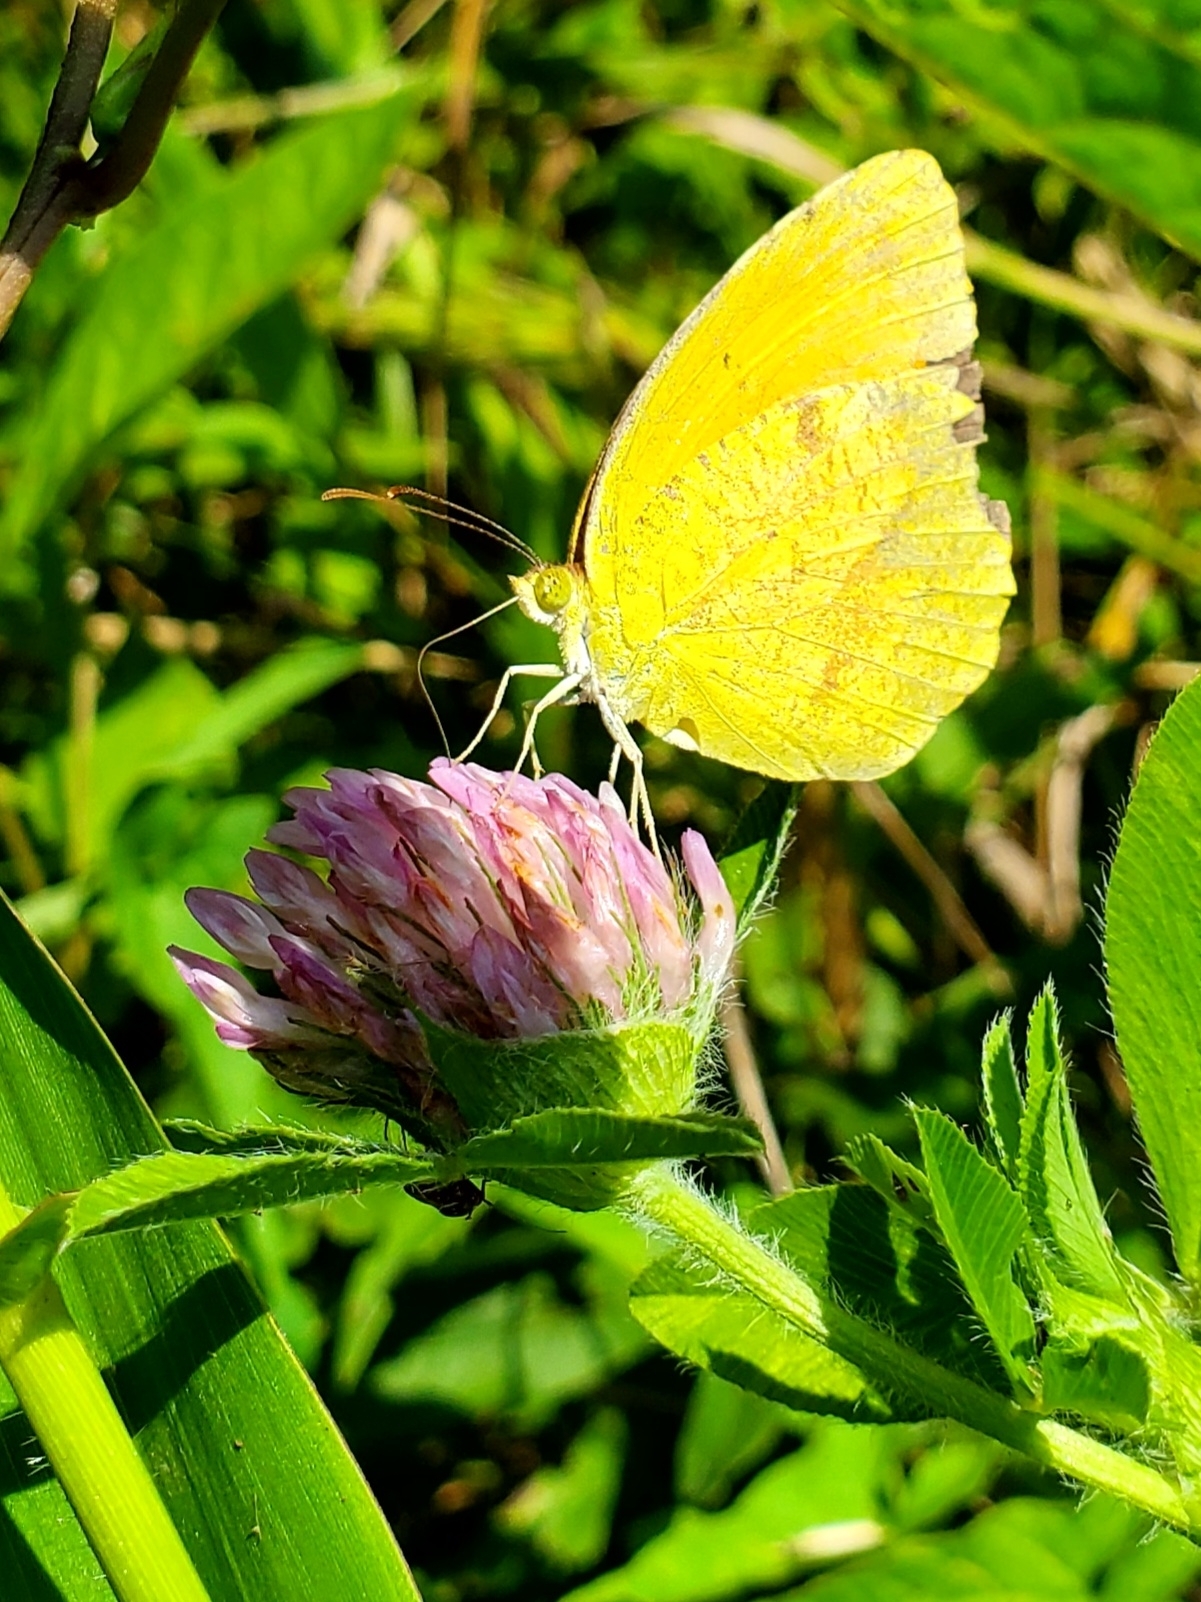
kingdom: Animalia
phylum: Arthropoda
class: Insecta
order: Lepidoptera
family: Pieridae
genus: Abaeis
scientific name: Abaeis nicippe
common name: Sleepy orange
